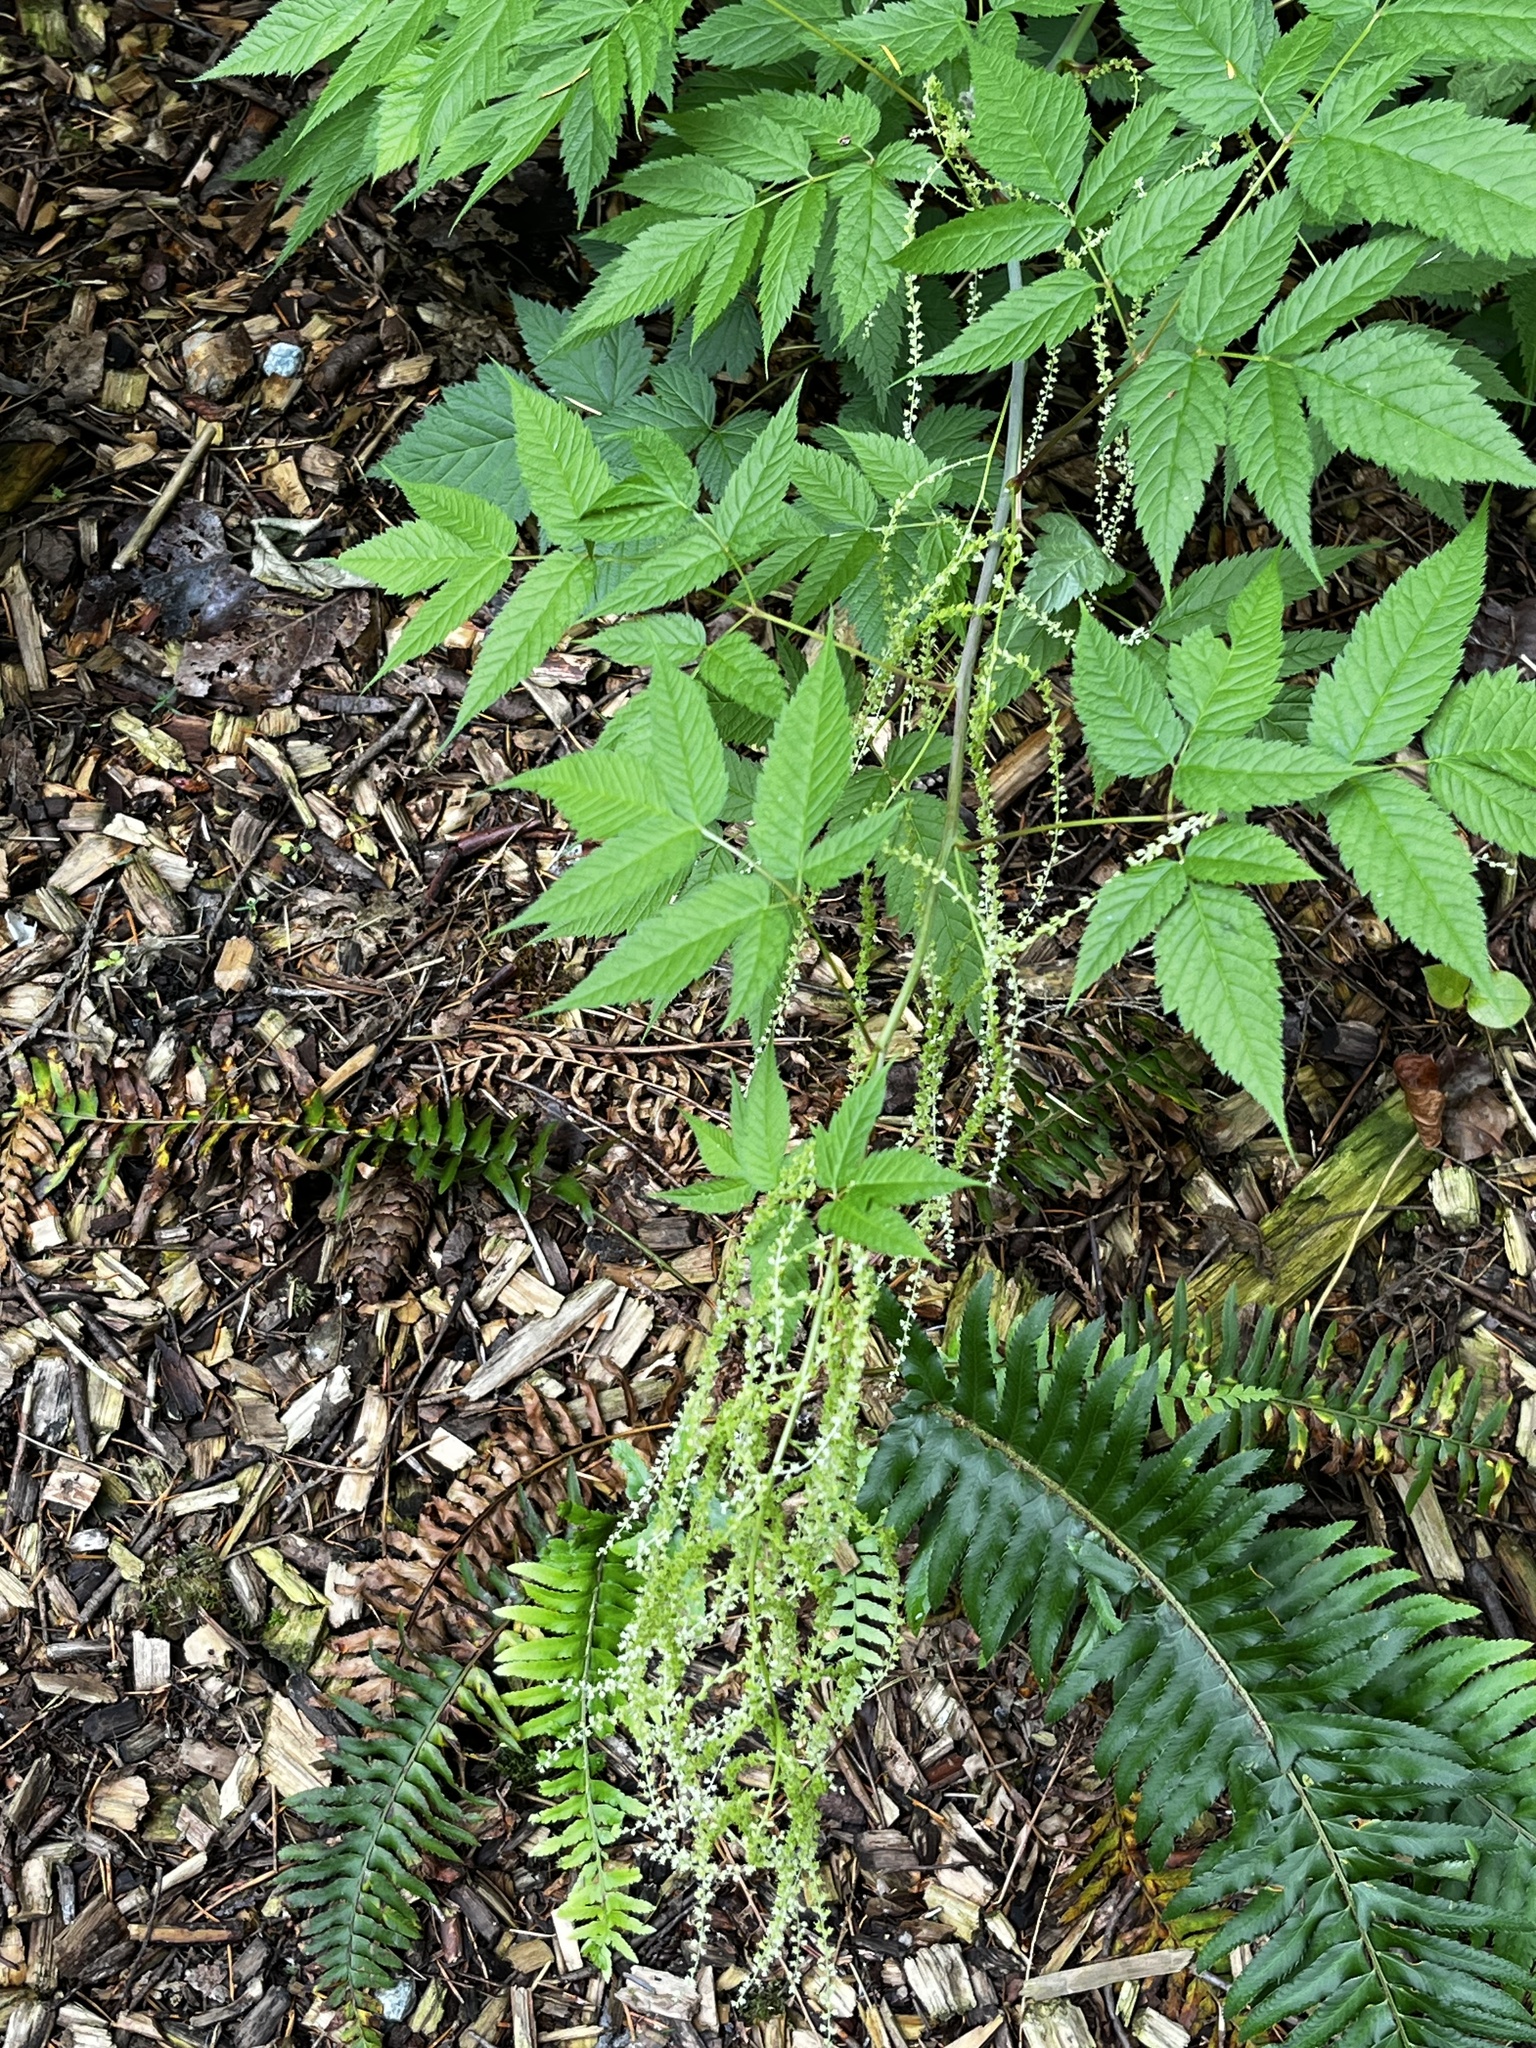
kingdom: Plantae
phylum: Tracheophyta
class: Magnoliopsida
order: Rosales
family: Rosaceae
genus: Aruncus
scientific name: Aruncus dioicus
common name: Buck's-beard
